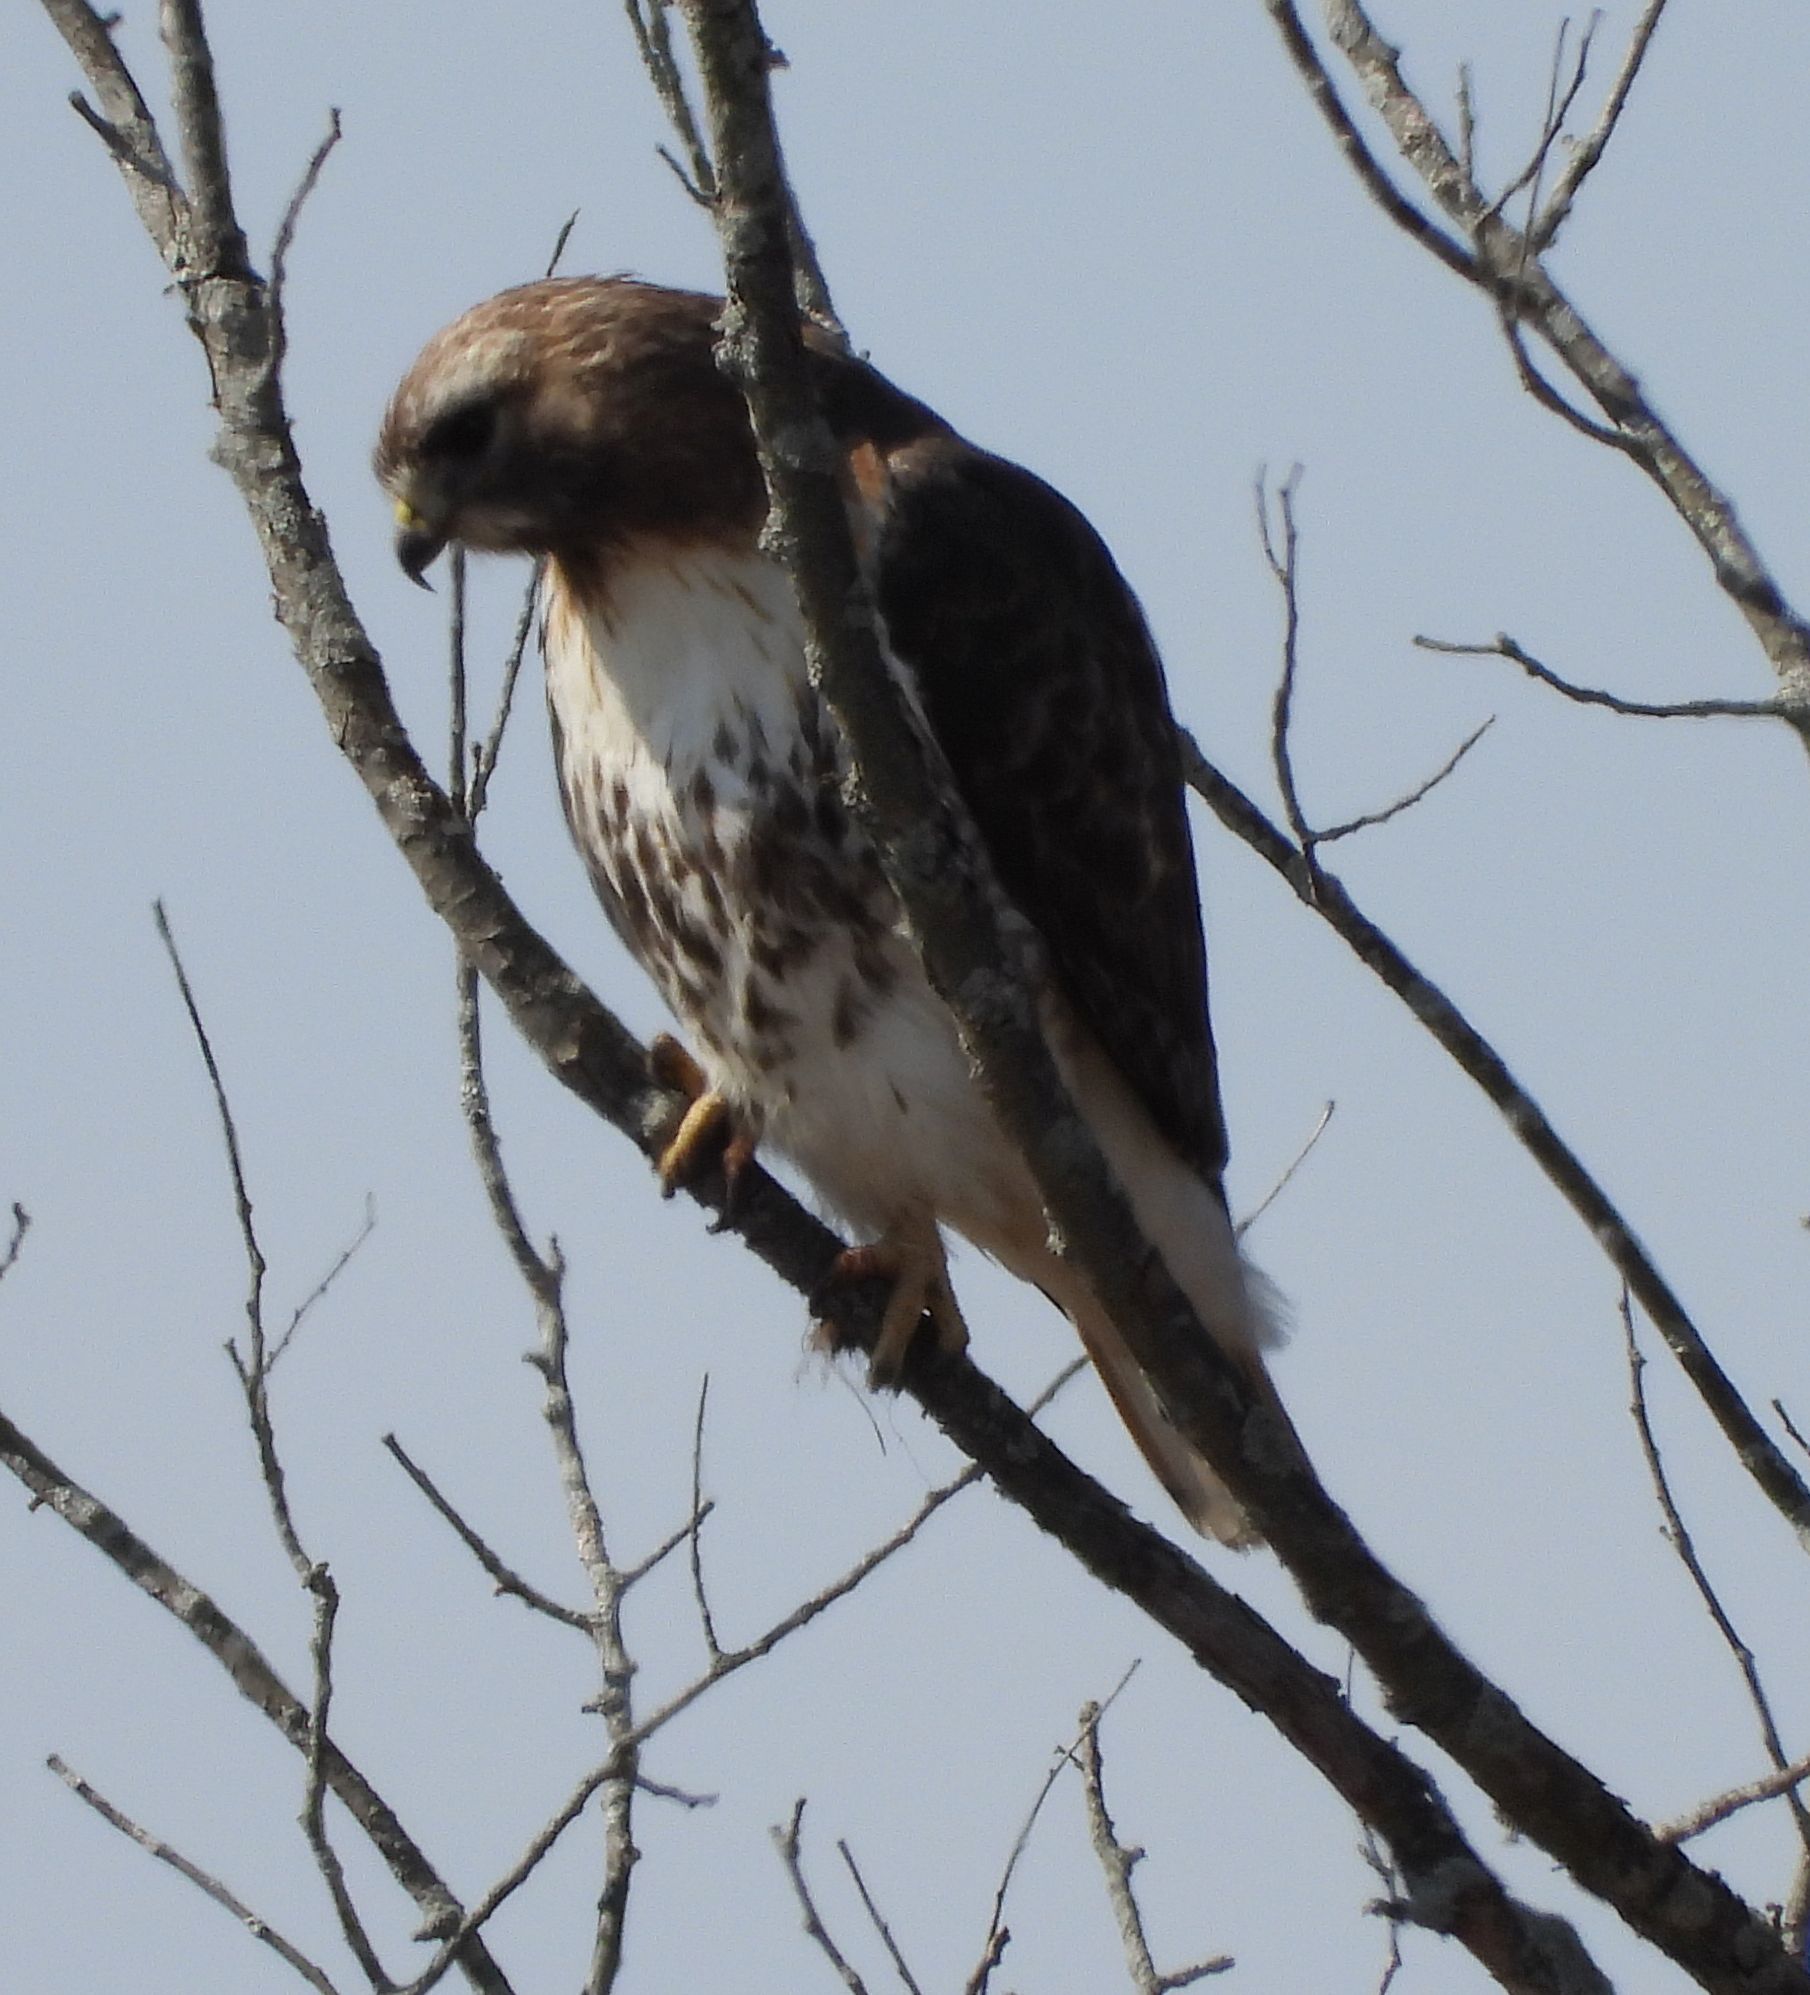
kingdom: Animalia
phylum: Chordata
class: Aves
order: Accipitriformes
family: Accipitridae
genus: Buteo
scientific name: Buteo jamaicensis
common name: Red-tailed hawk
